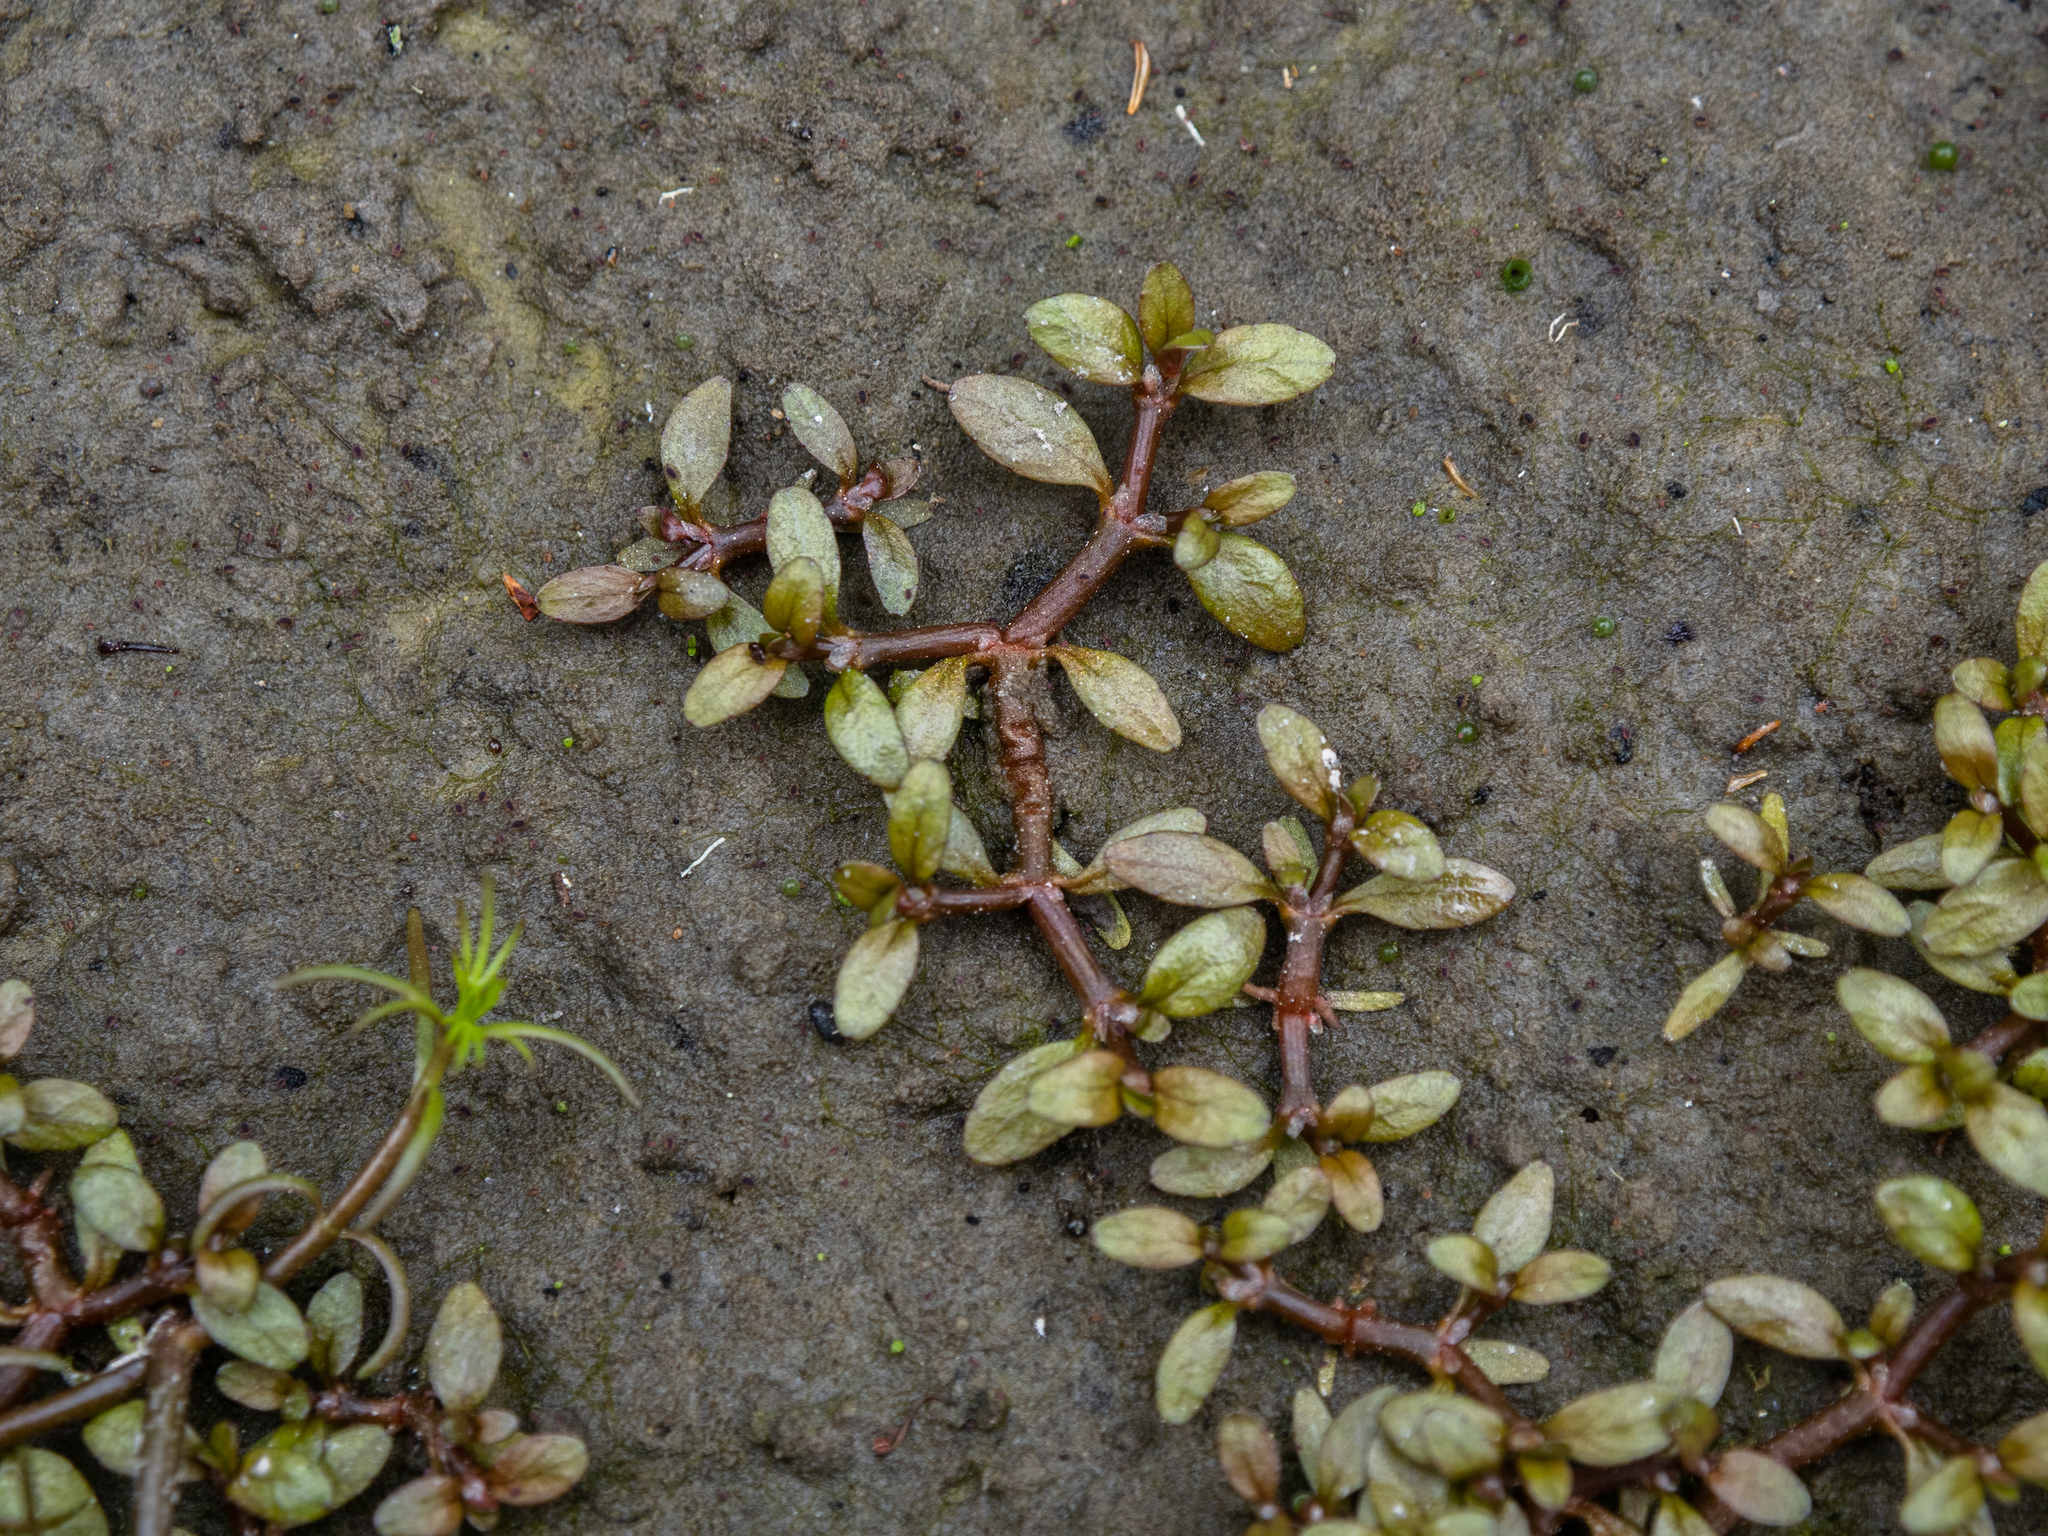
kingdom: Plantae
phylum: Tracheophyta
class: Magnoliopsida
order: Malpighiales
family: Elatinaceae
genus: Elatine
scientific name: Elatine gratioloides
